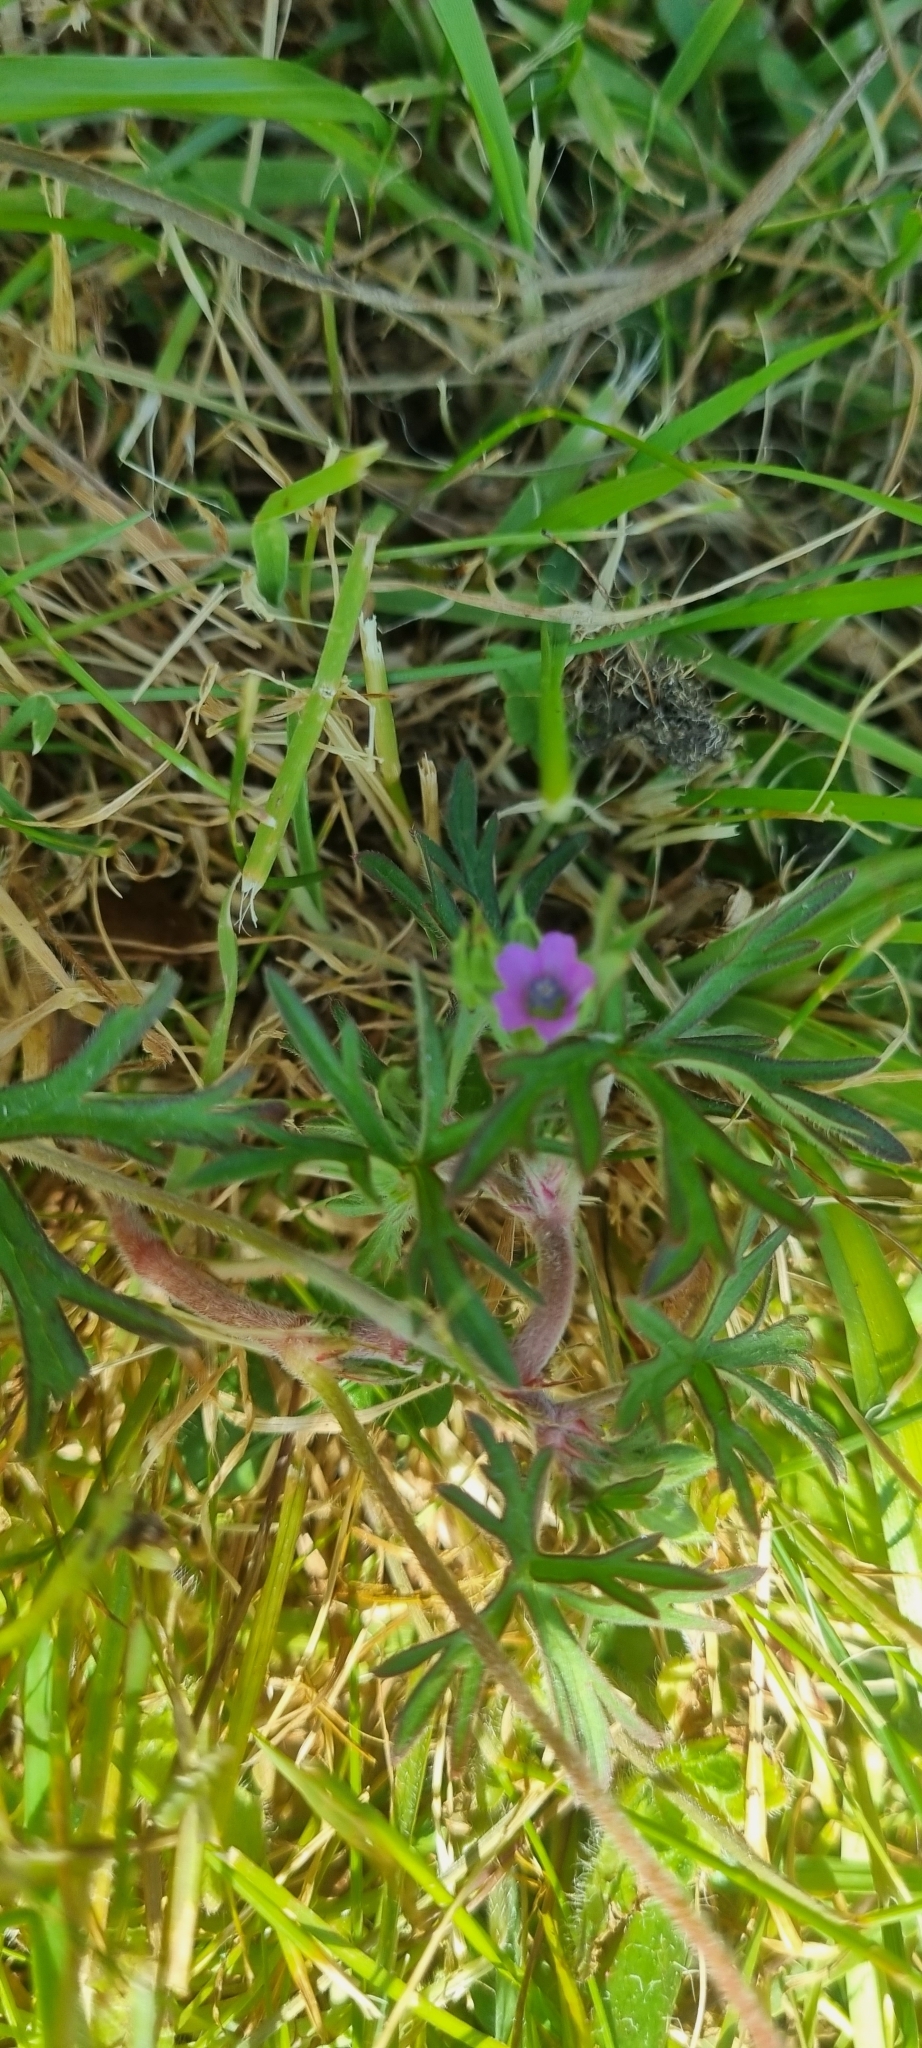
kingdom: Plantae
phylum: Tracheophyta
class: Magnoliopsida
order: Geraniales
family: Geraniaceae
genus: Geranium
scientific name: Geranium dissectum
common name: Cut-leaved crane's-bill
